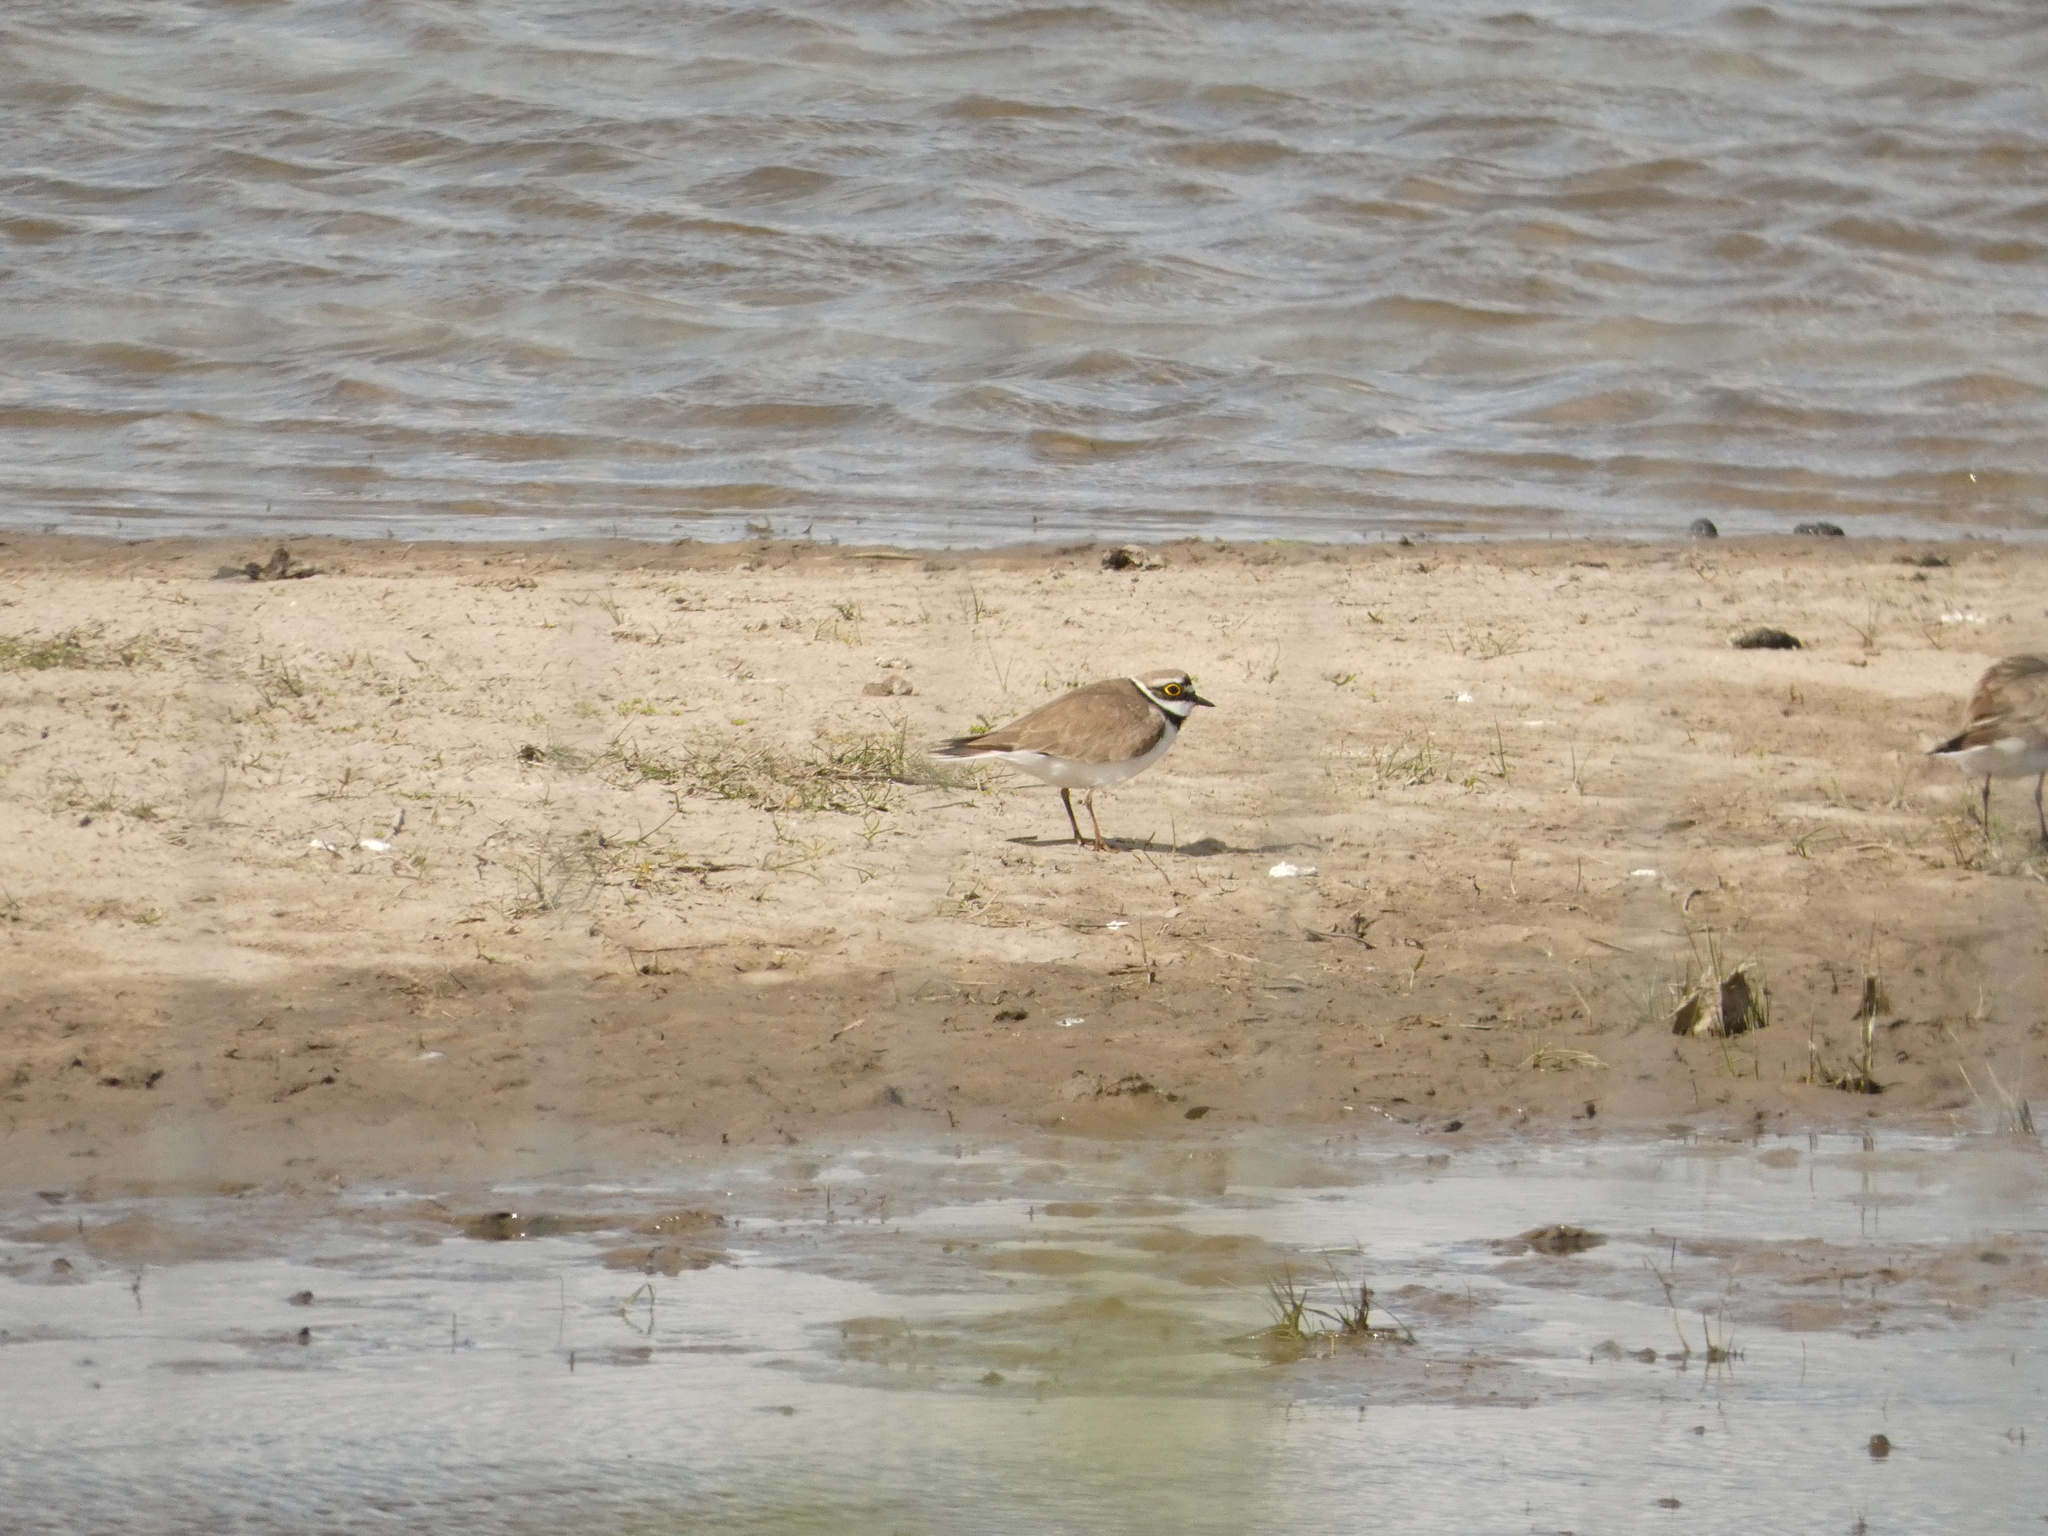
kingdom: Animalia
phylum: Chordata
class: Aves
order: Charadriiformes
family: Charadriidae
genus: Charadrius
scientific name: Charadrius dubius
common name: Little ringed plover
